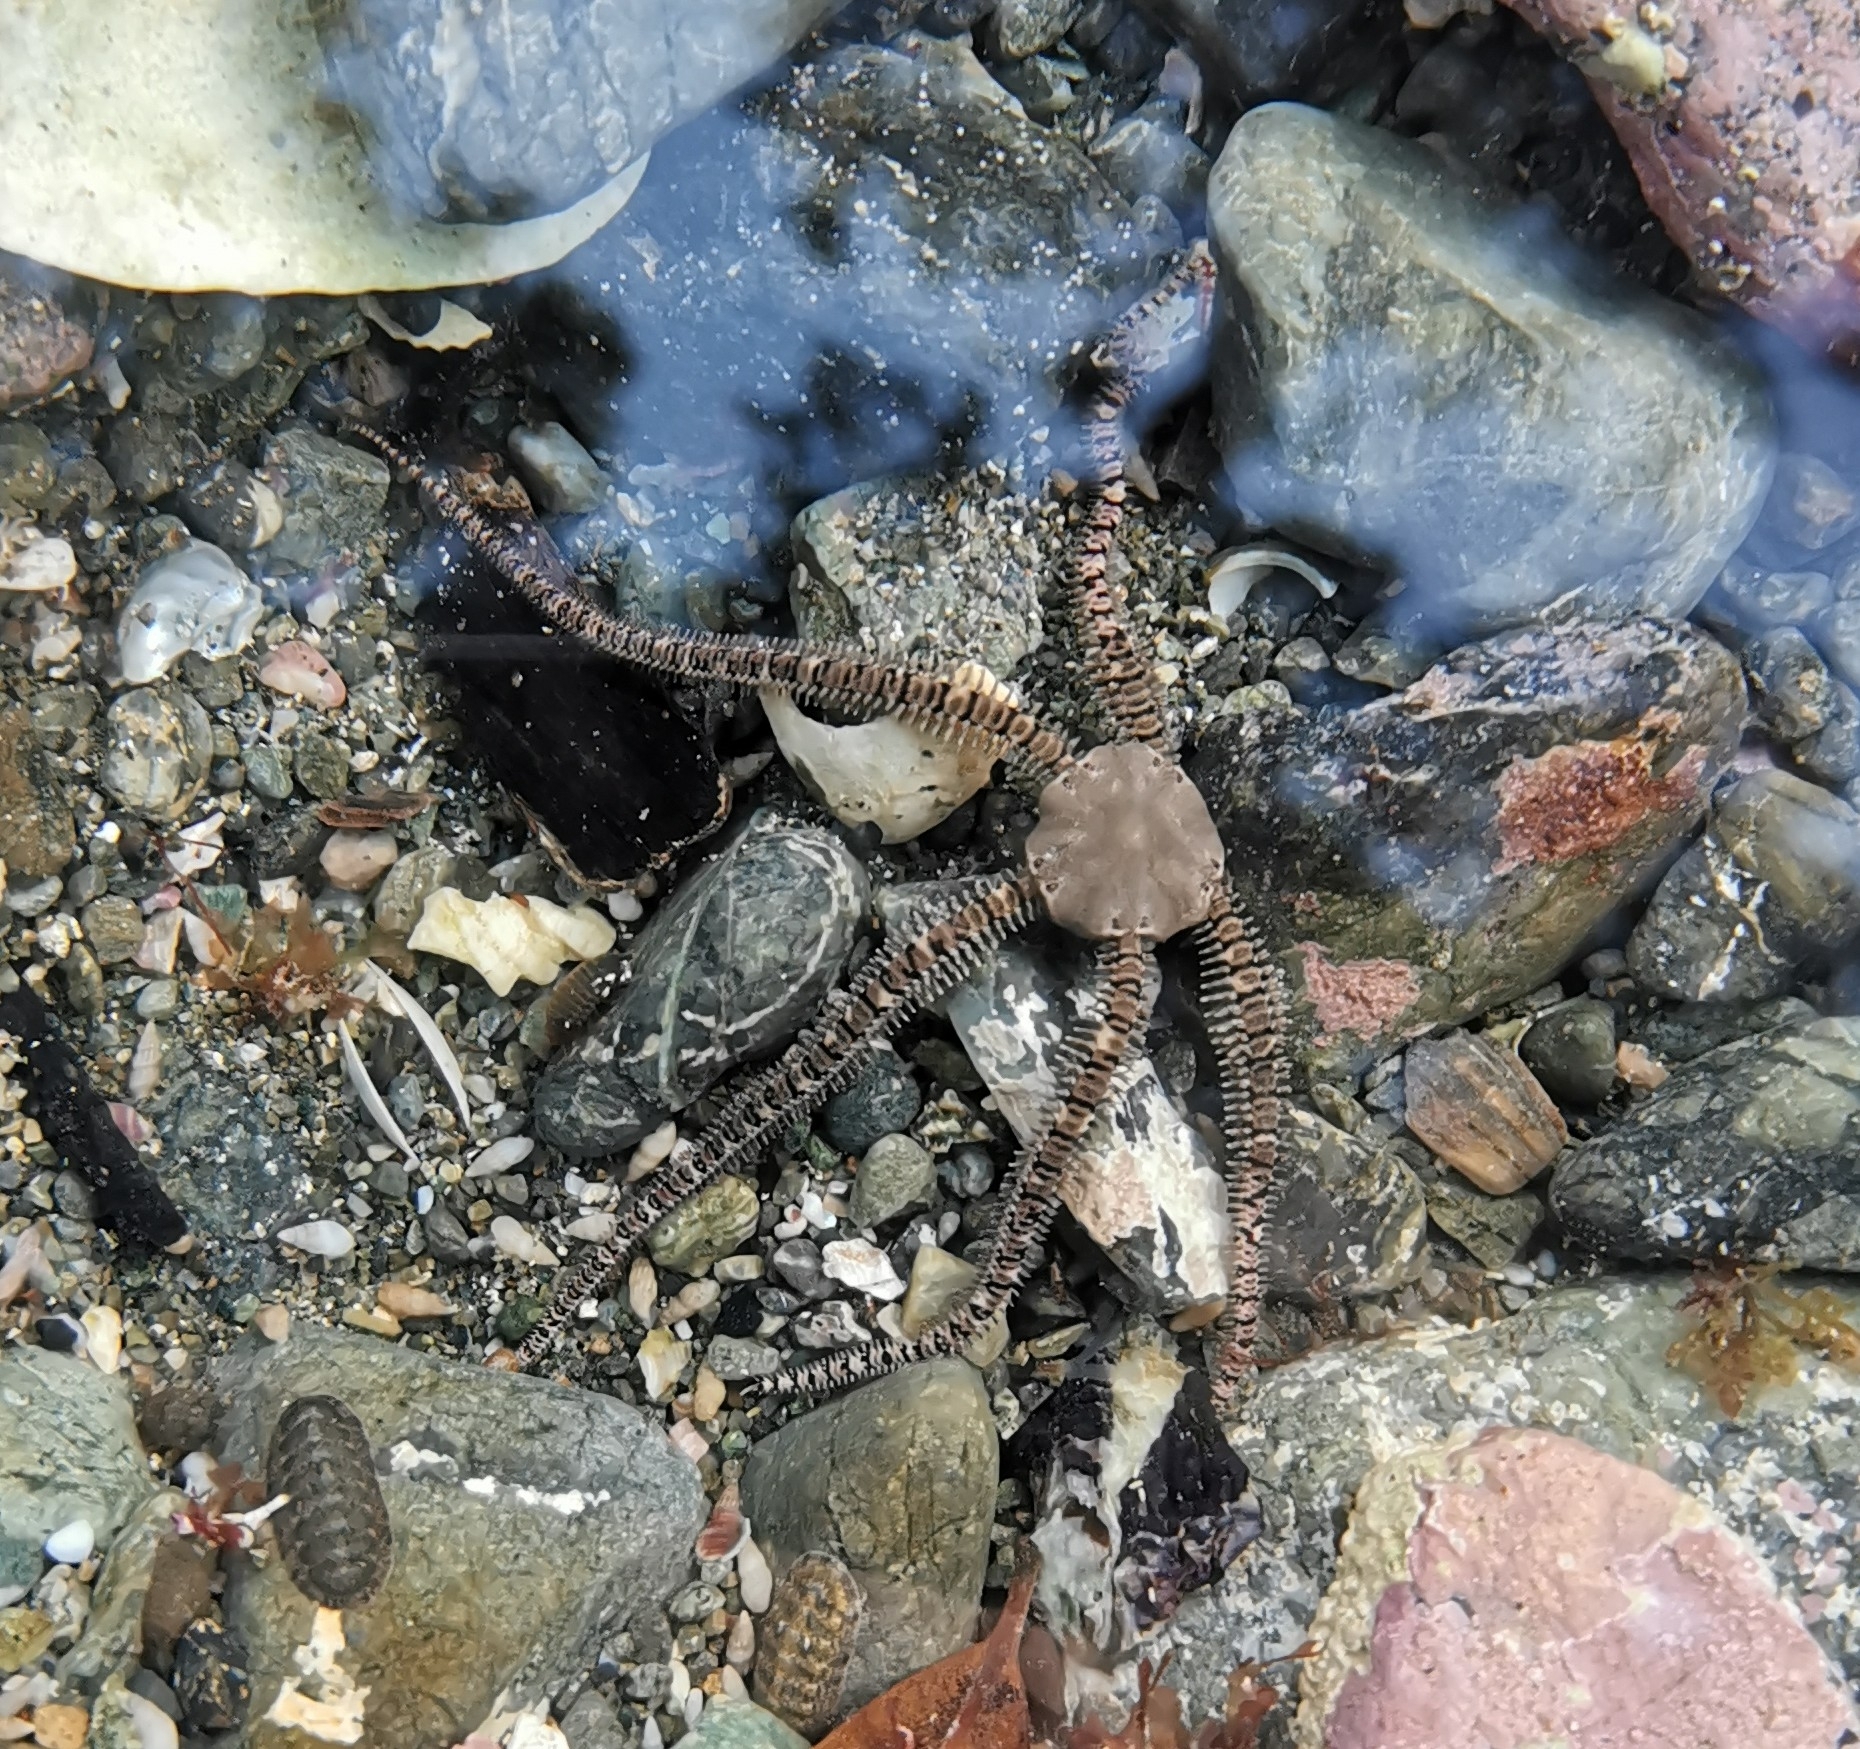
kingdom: Animalia
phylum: Echinodermata
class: Ophiuroidea
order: Amphilepidida
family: Ophionereididae
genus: Ophionereis
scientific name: Ophionereis fasciata
